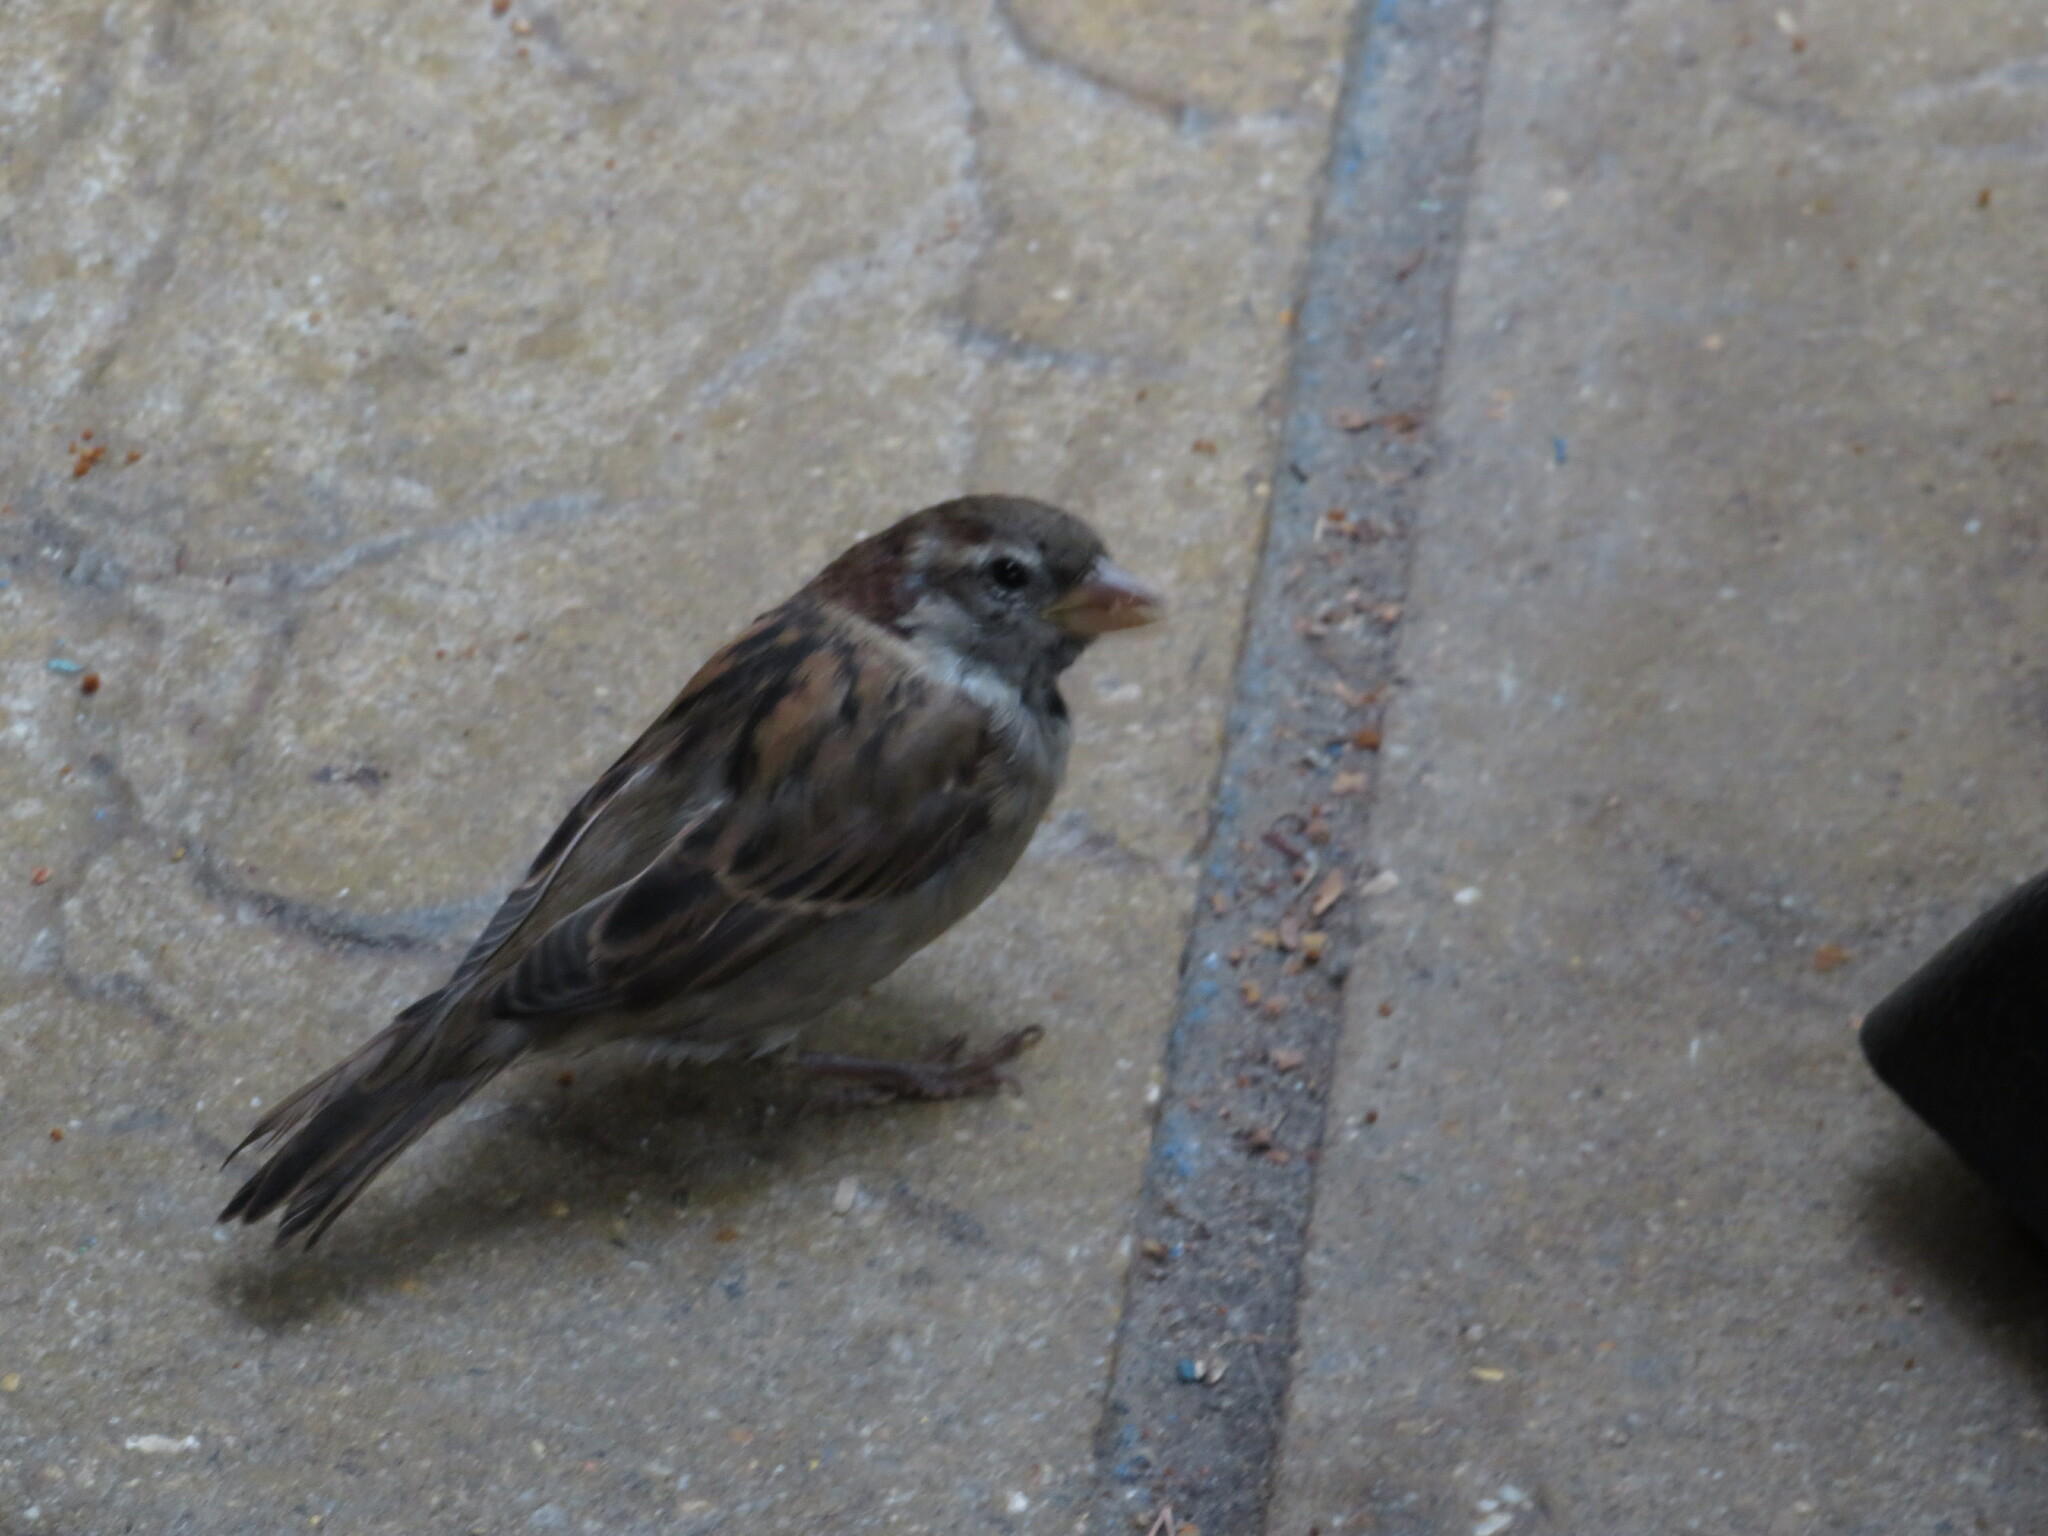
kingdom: Animalia
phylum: Chordata
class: Aves
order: Passeriformes
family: Passeridae
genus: Passer
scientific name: Passer domesticus
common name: House sparrow
